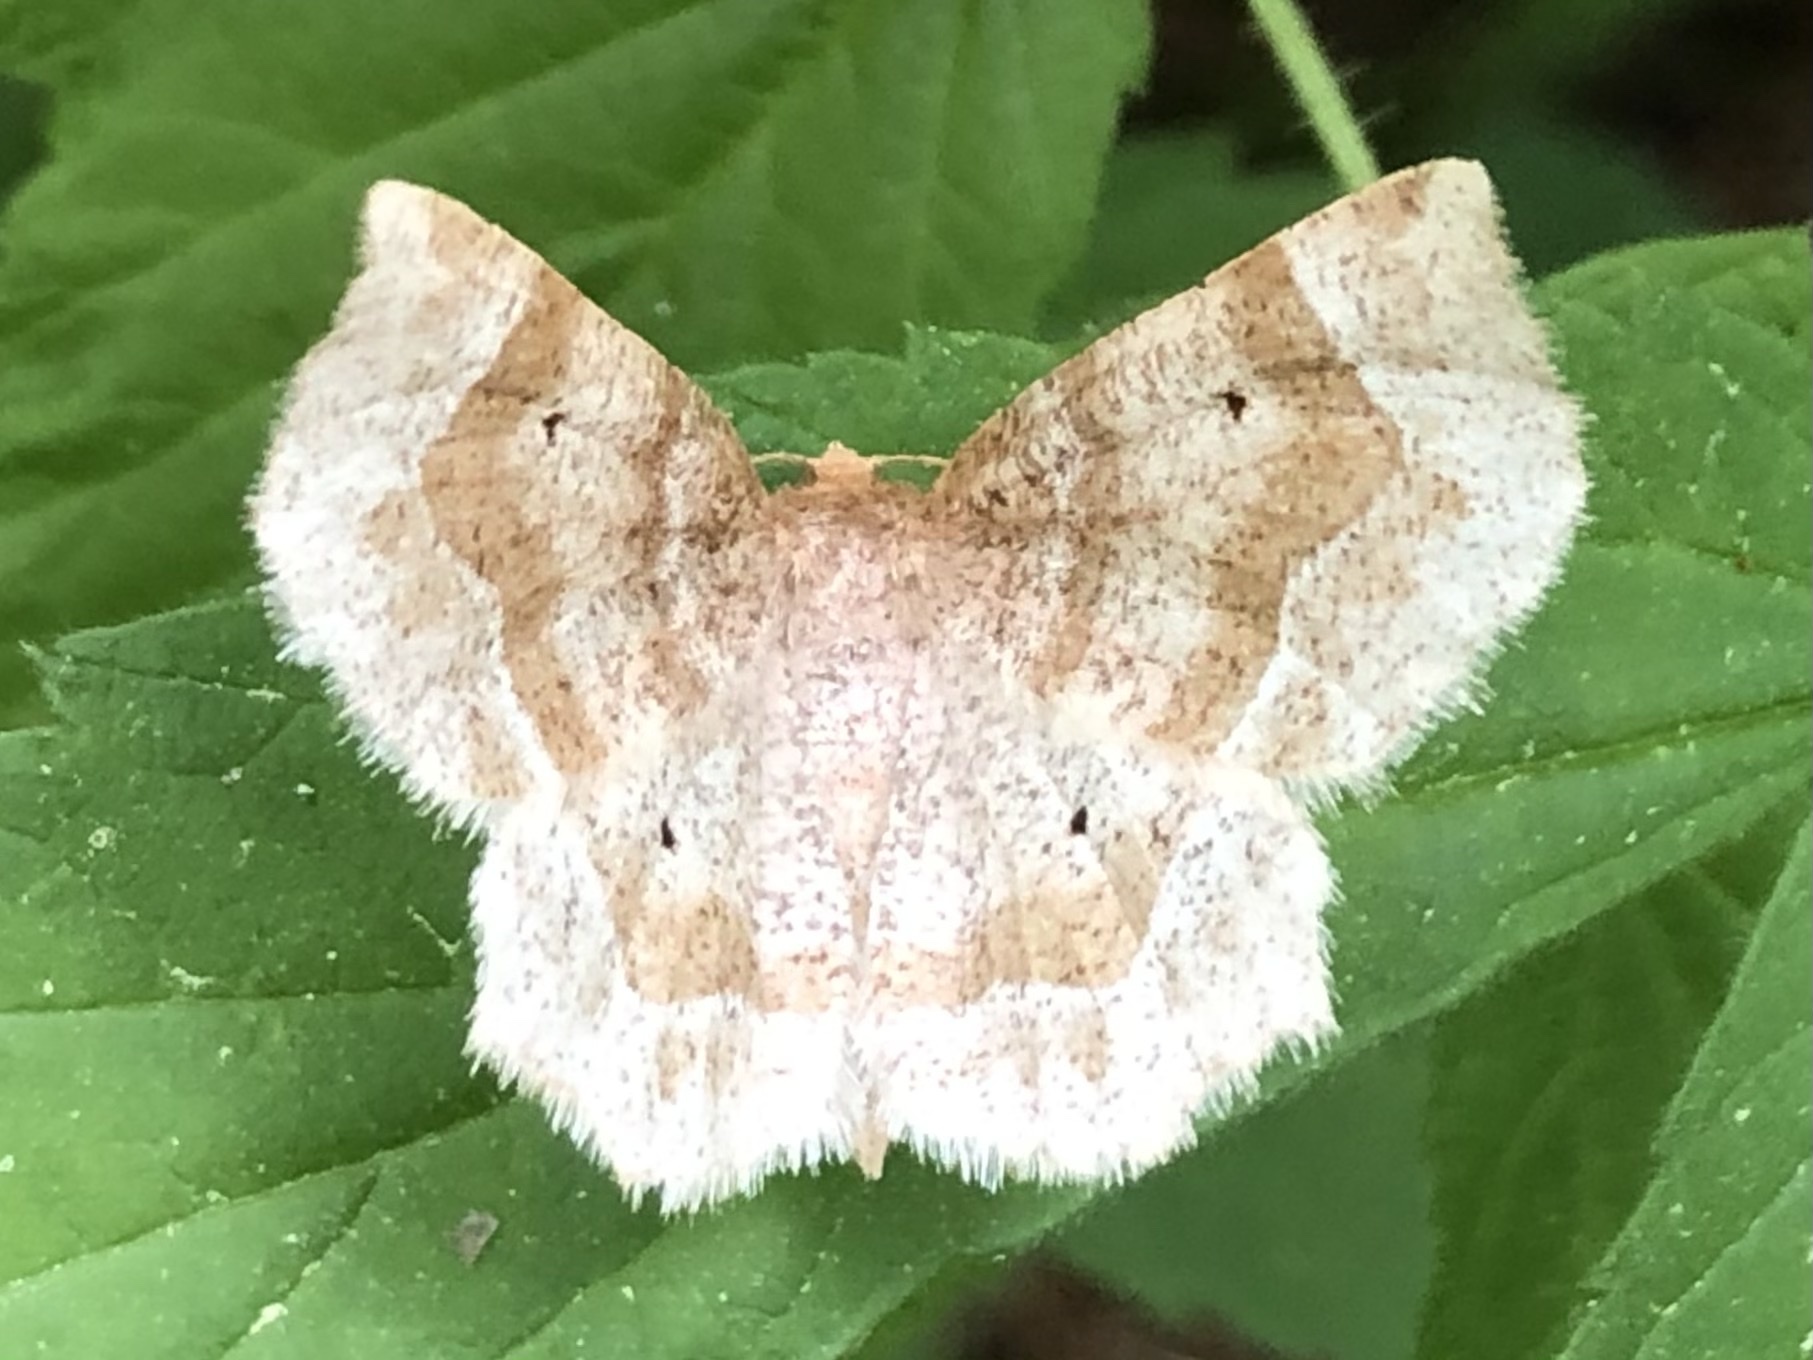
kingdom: Animalia
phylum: Arthropoda
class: Insecta
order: Lepidoptera
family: Geometridae
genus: Metarranthis
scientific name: Metarranthis indeclinata
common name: Pale metarranthis
